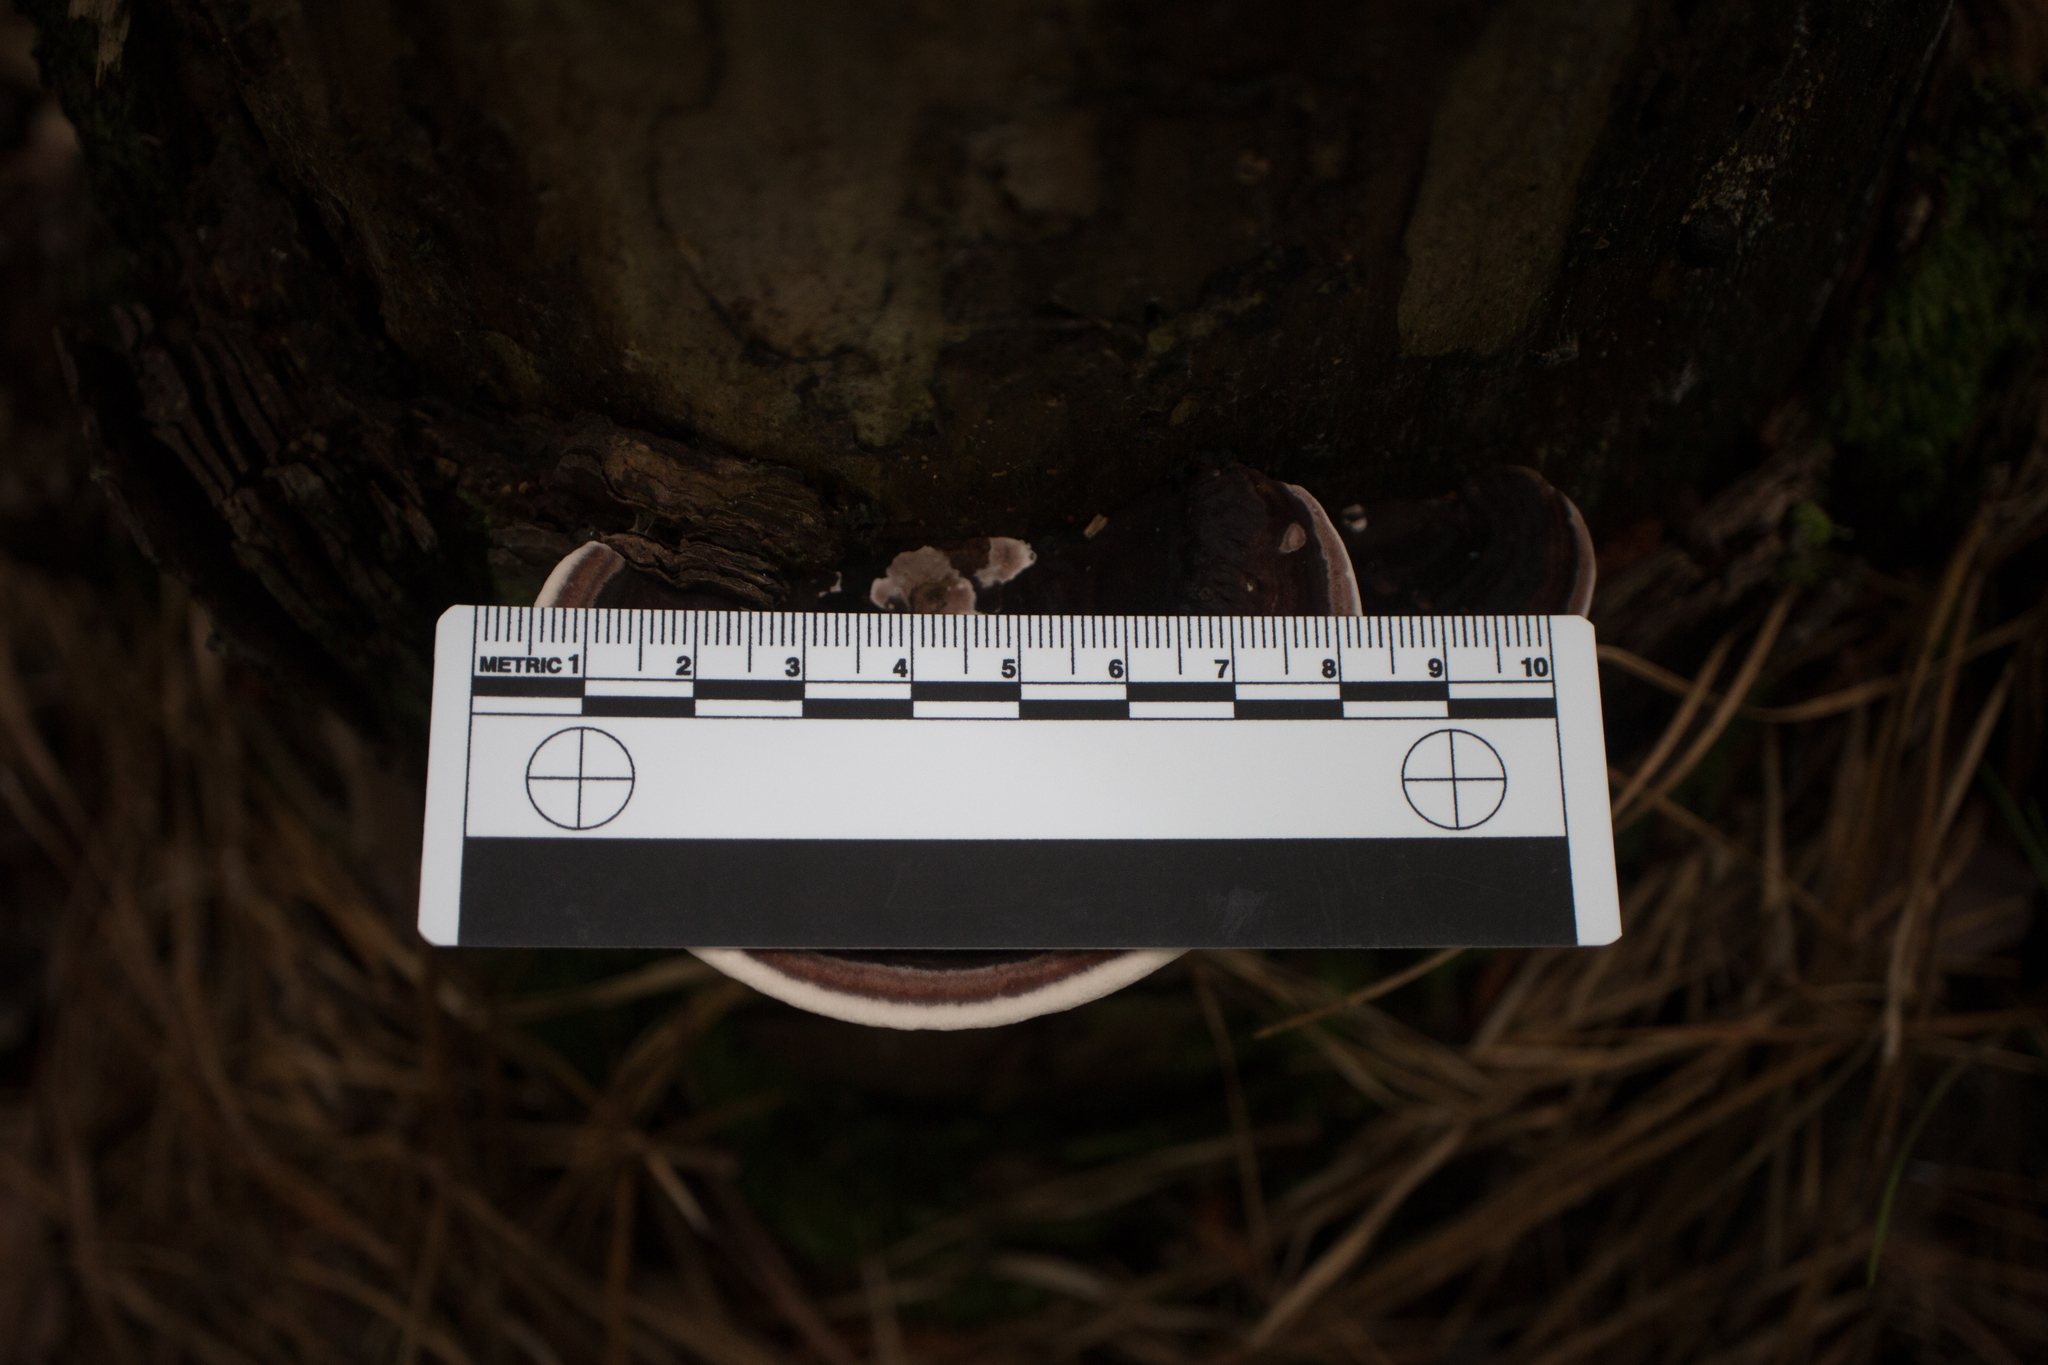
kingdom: Fungi
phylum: Basidiomycota
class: Agaricomycetes
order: Polyporales
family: Steccherinaceae
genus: Nigroporus
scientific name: Nigroporus vinosus
